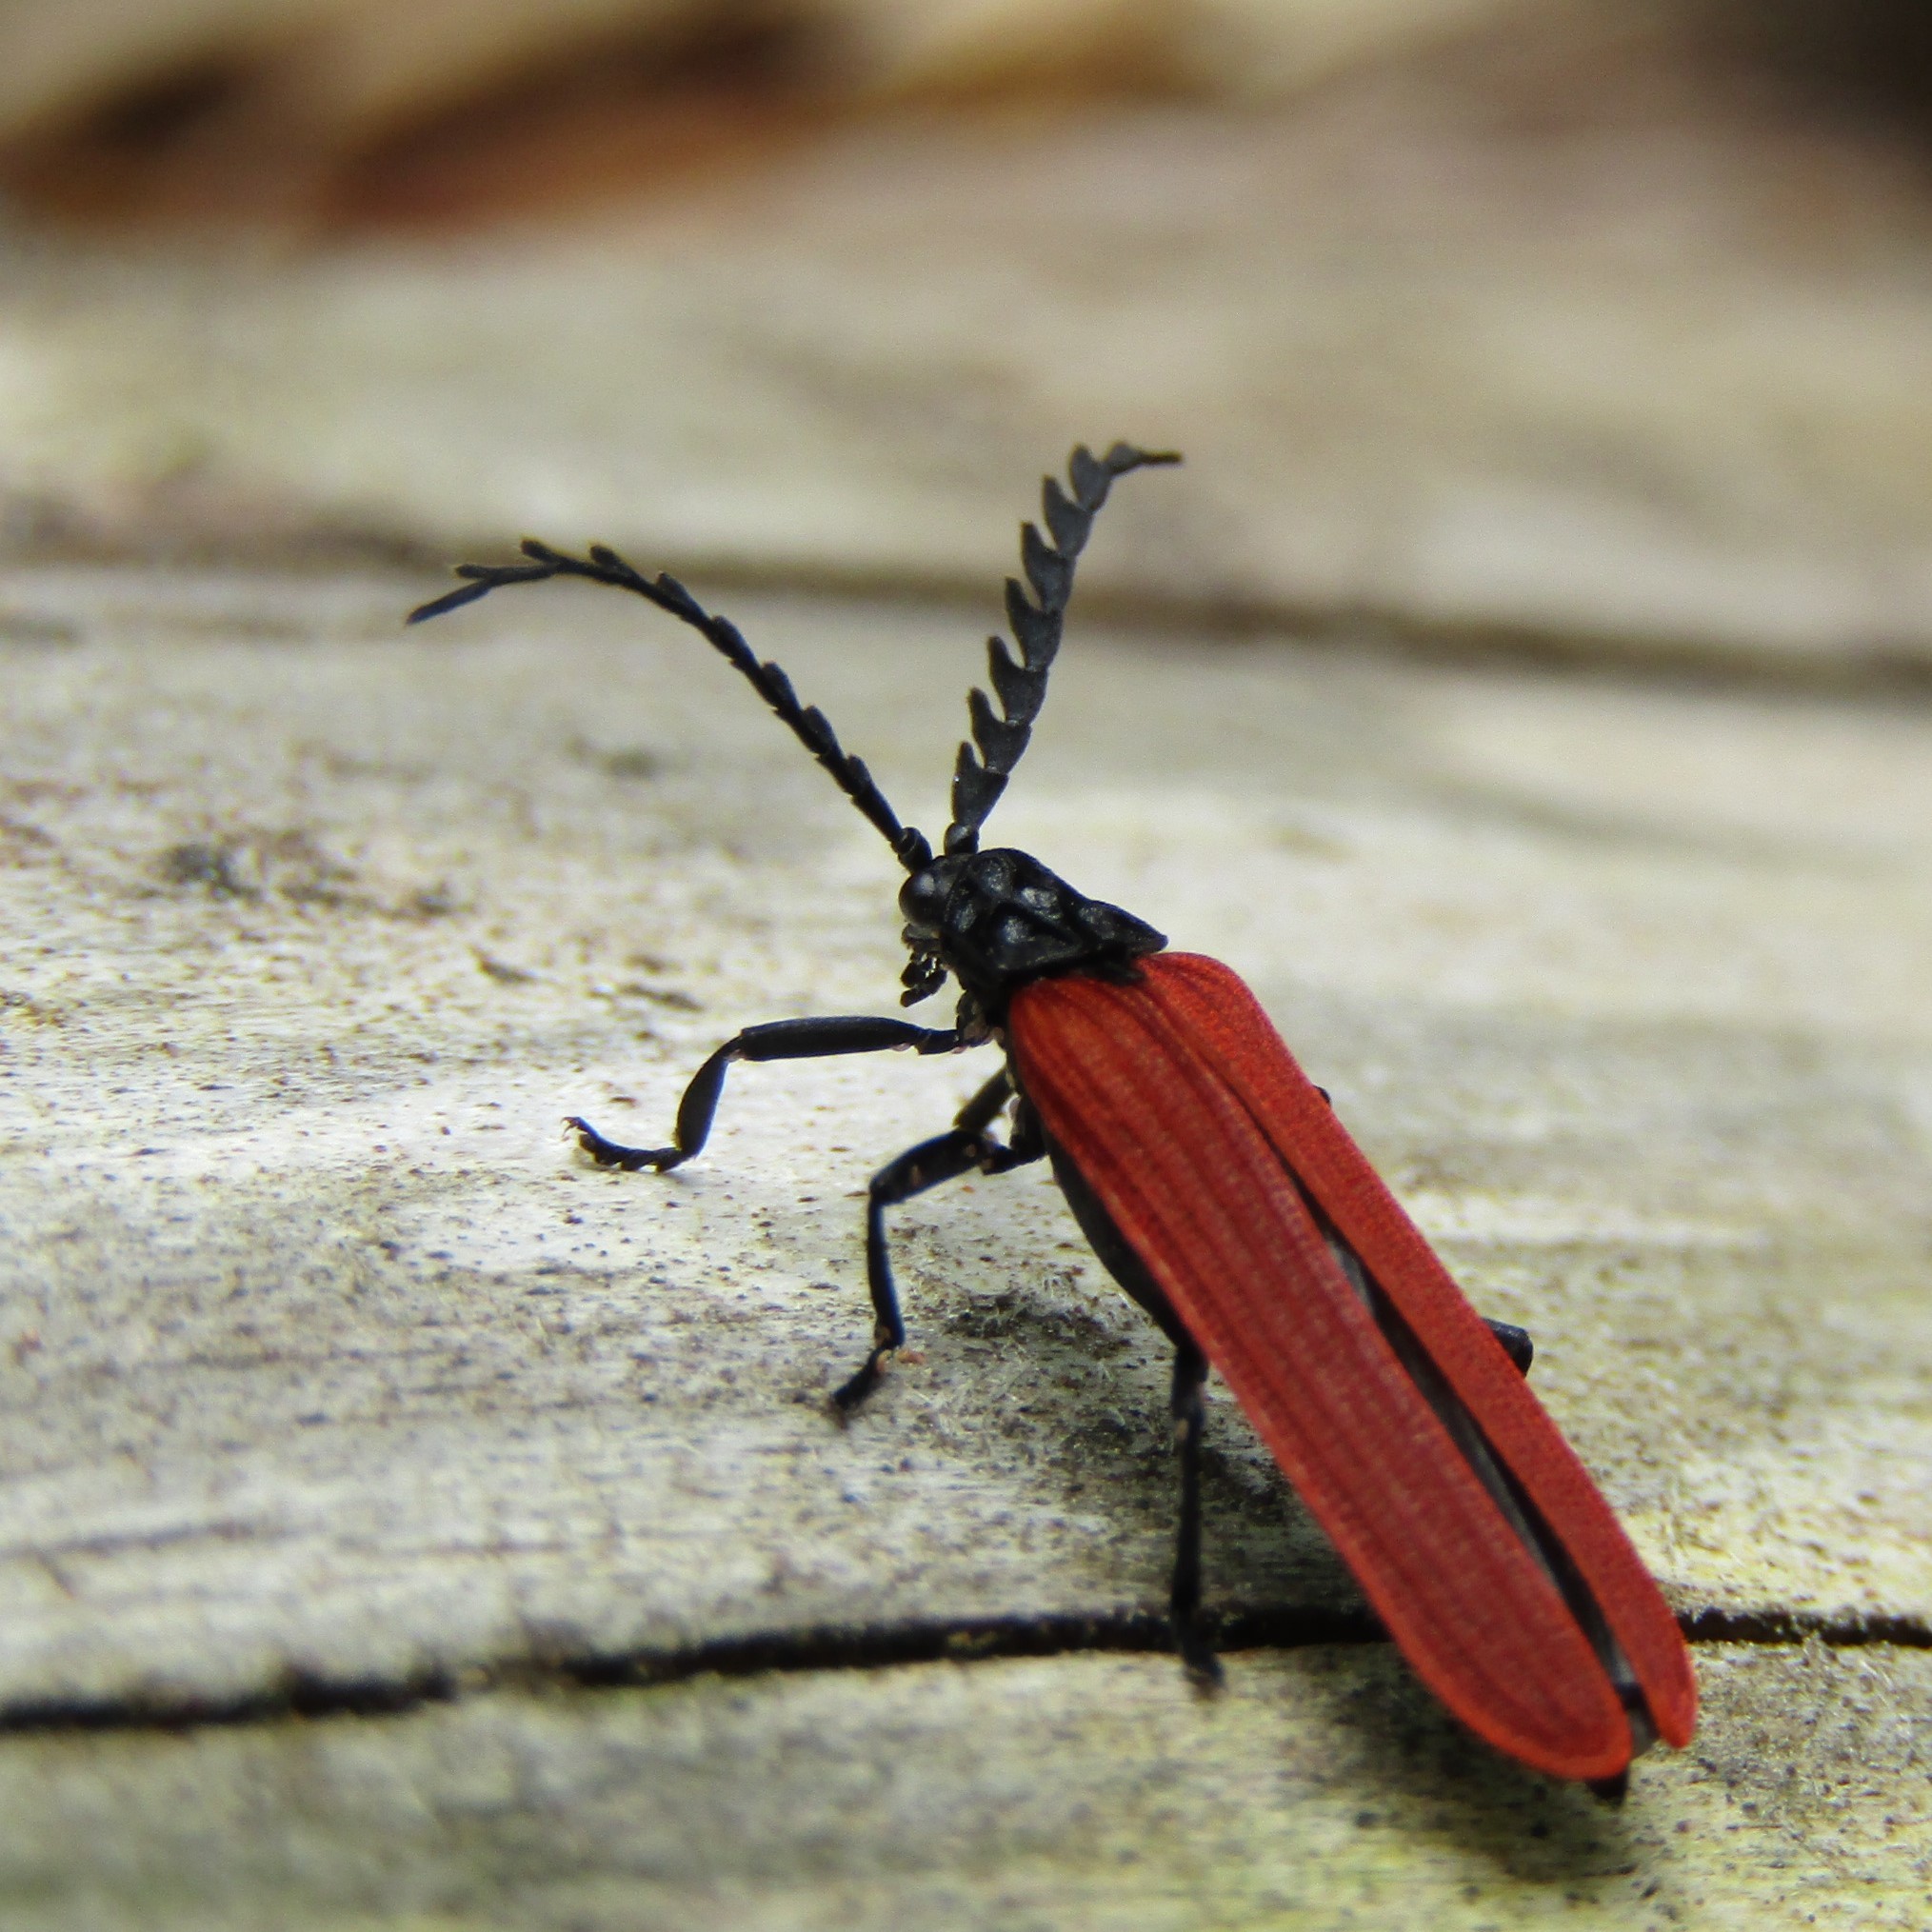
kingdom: Animalia
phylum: Arthropoda
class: Insecta
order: Coleoptera
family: Lycidae
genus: Porrostoma
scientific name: Porrostoma rufipenne
